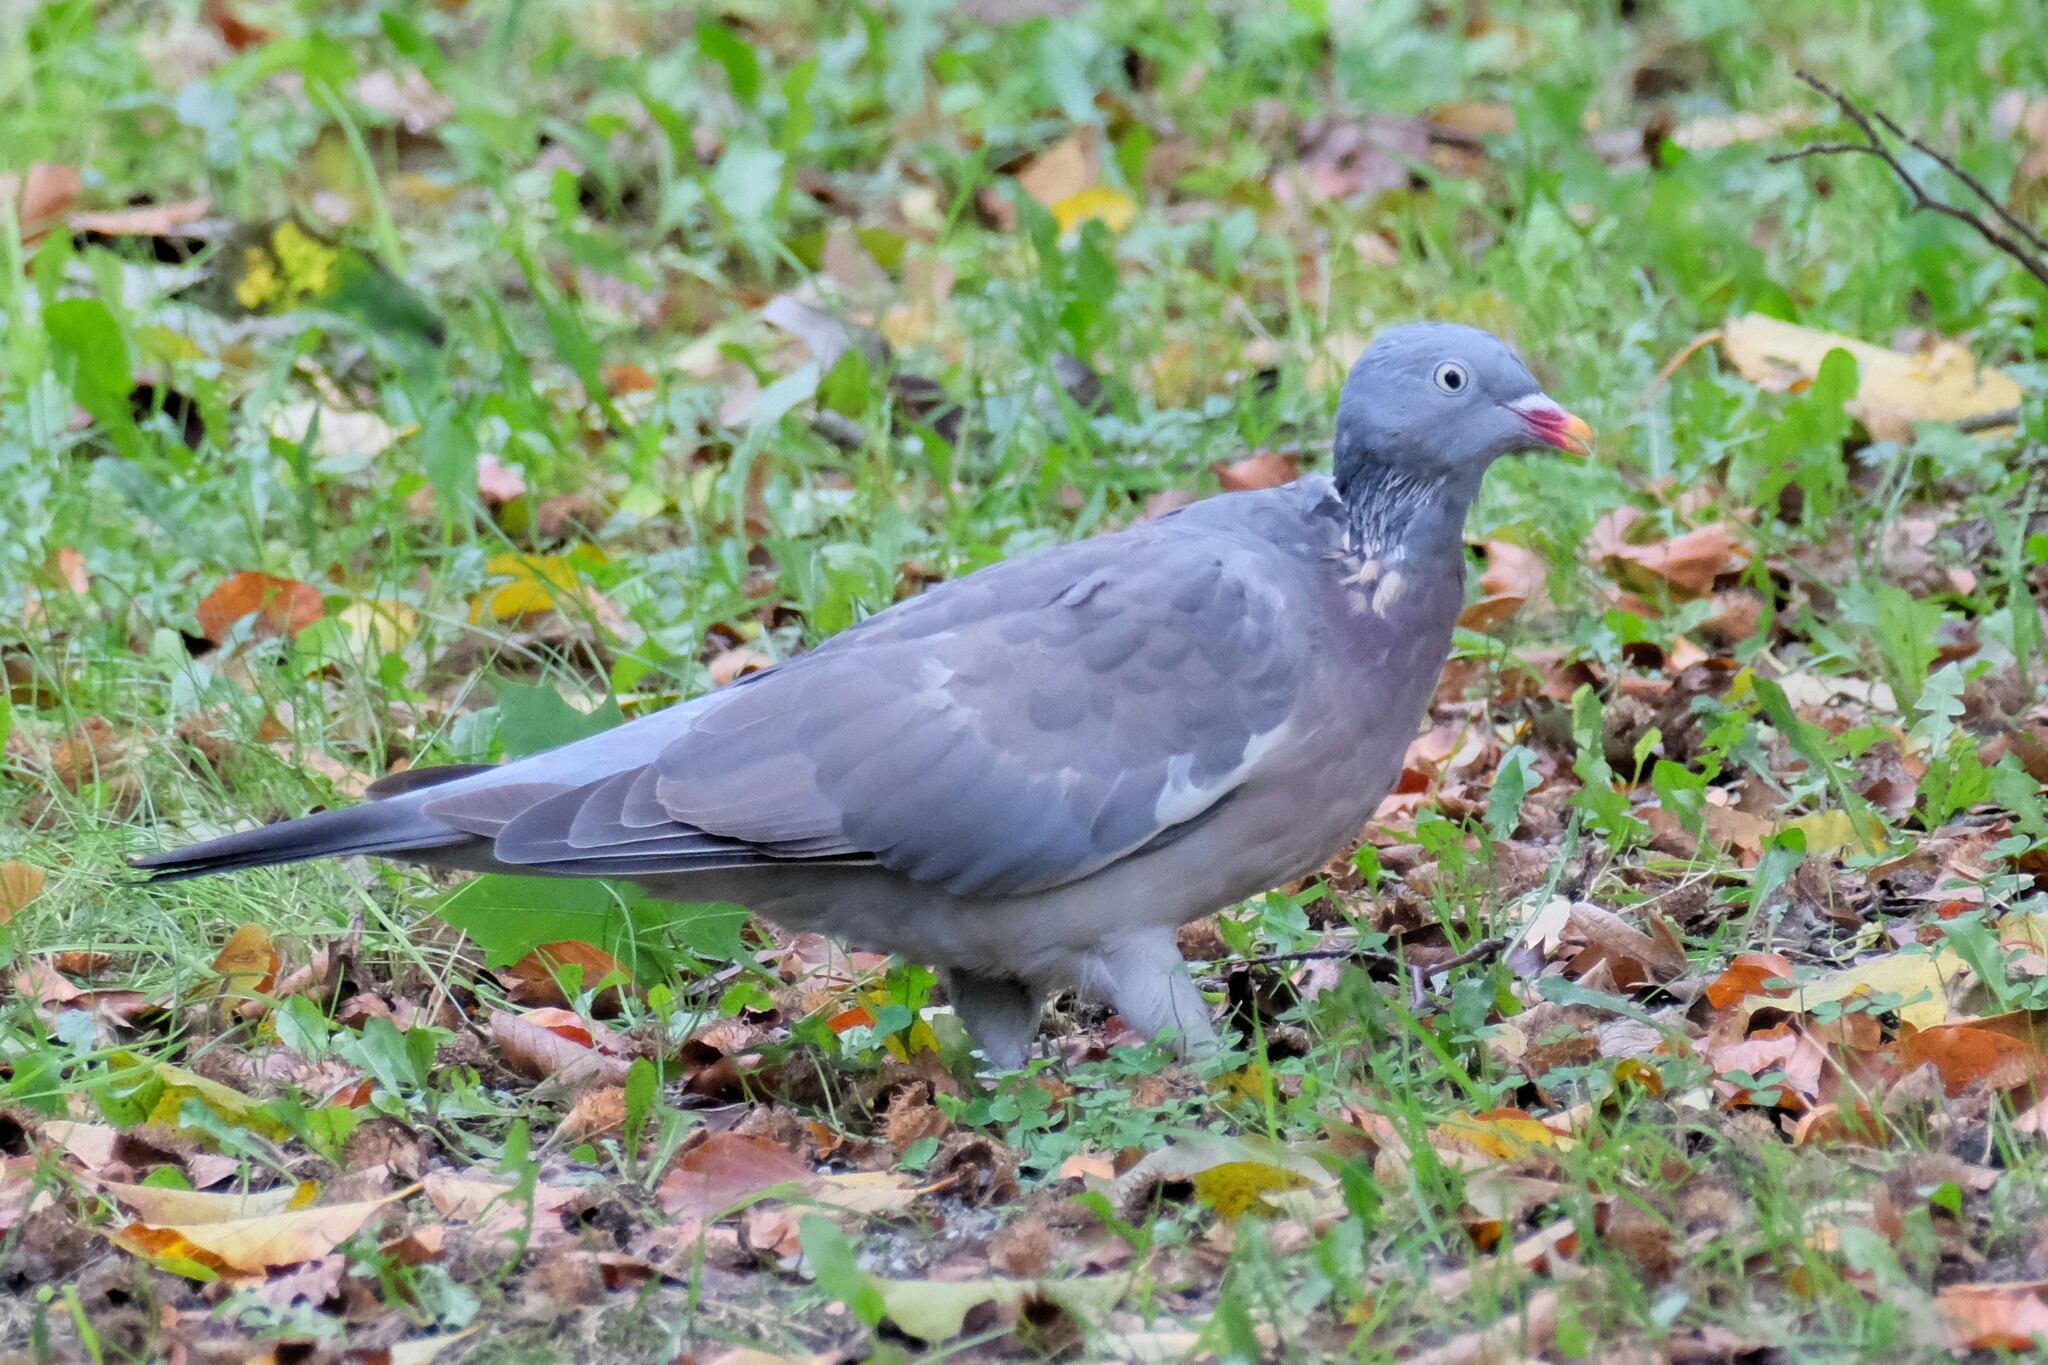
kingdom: Animalia
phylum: Chordata
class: Aves
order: Columbiformes
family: Columbidae
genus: Columba
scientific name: Columba palumbus
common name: Common wood pigeon
